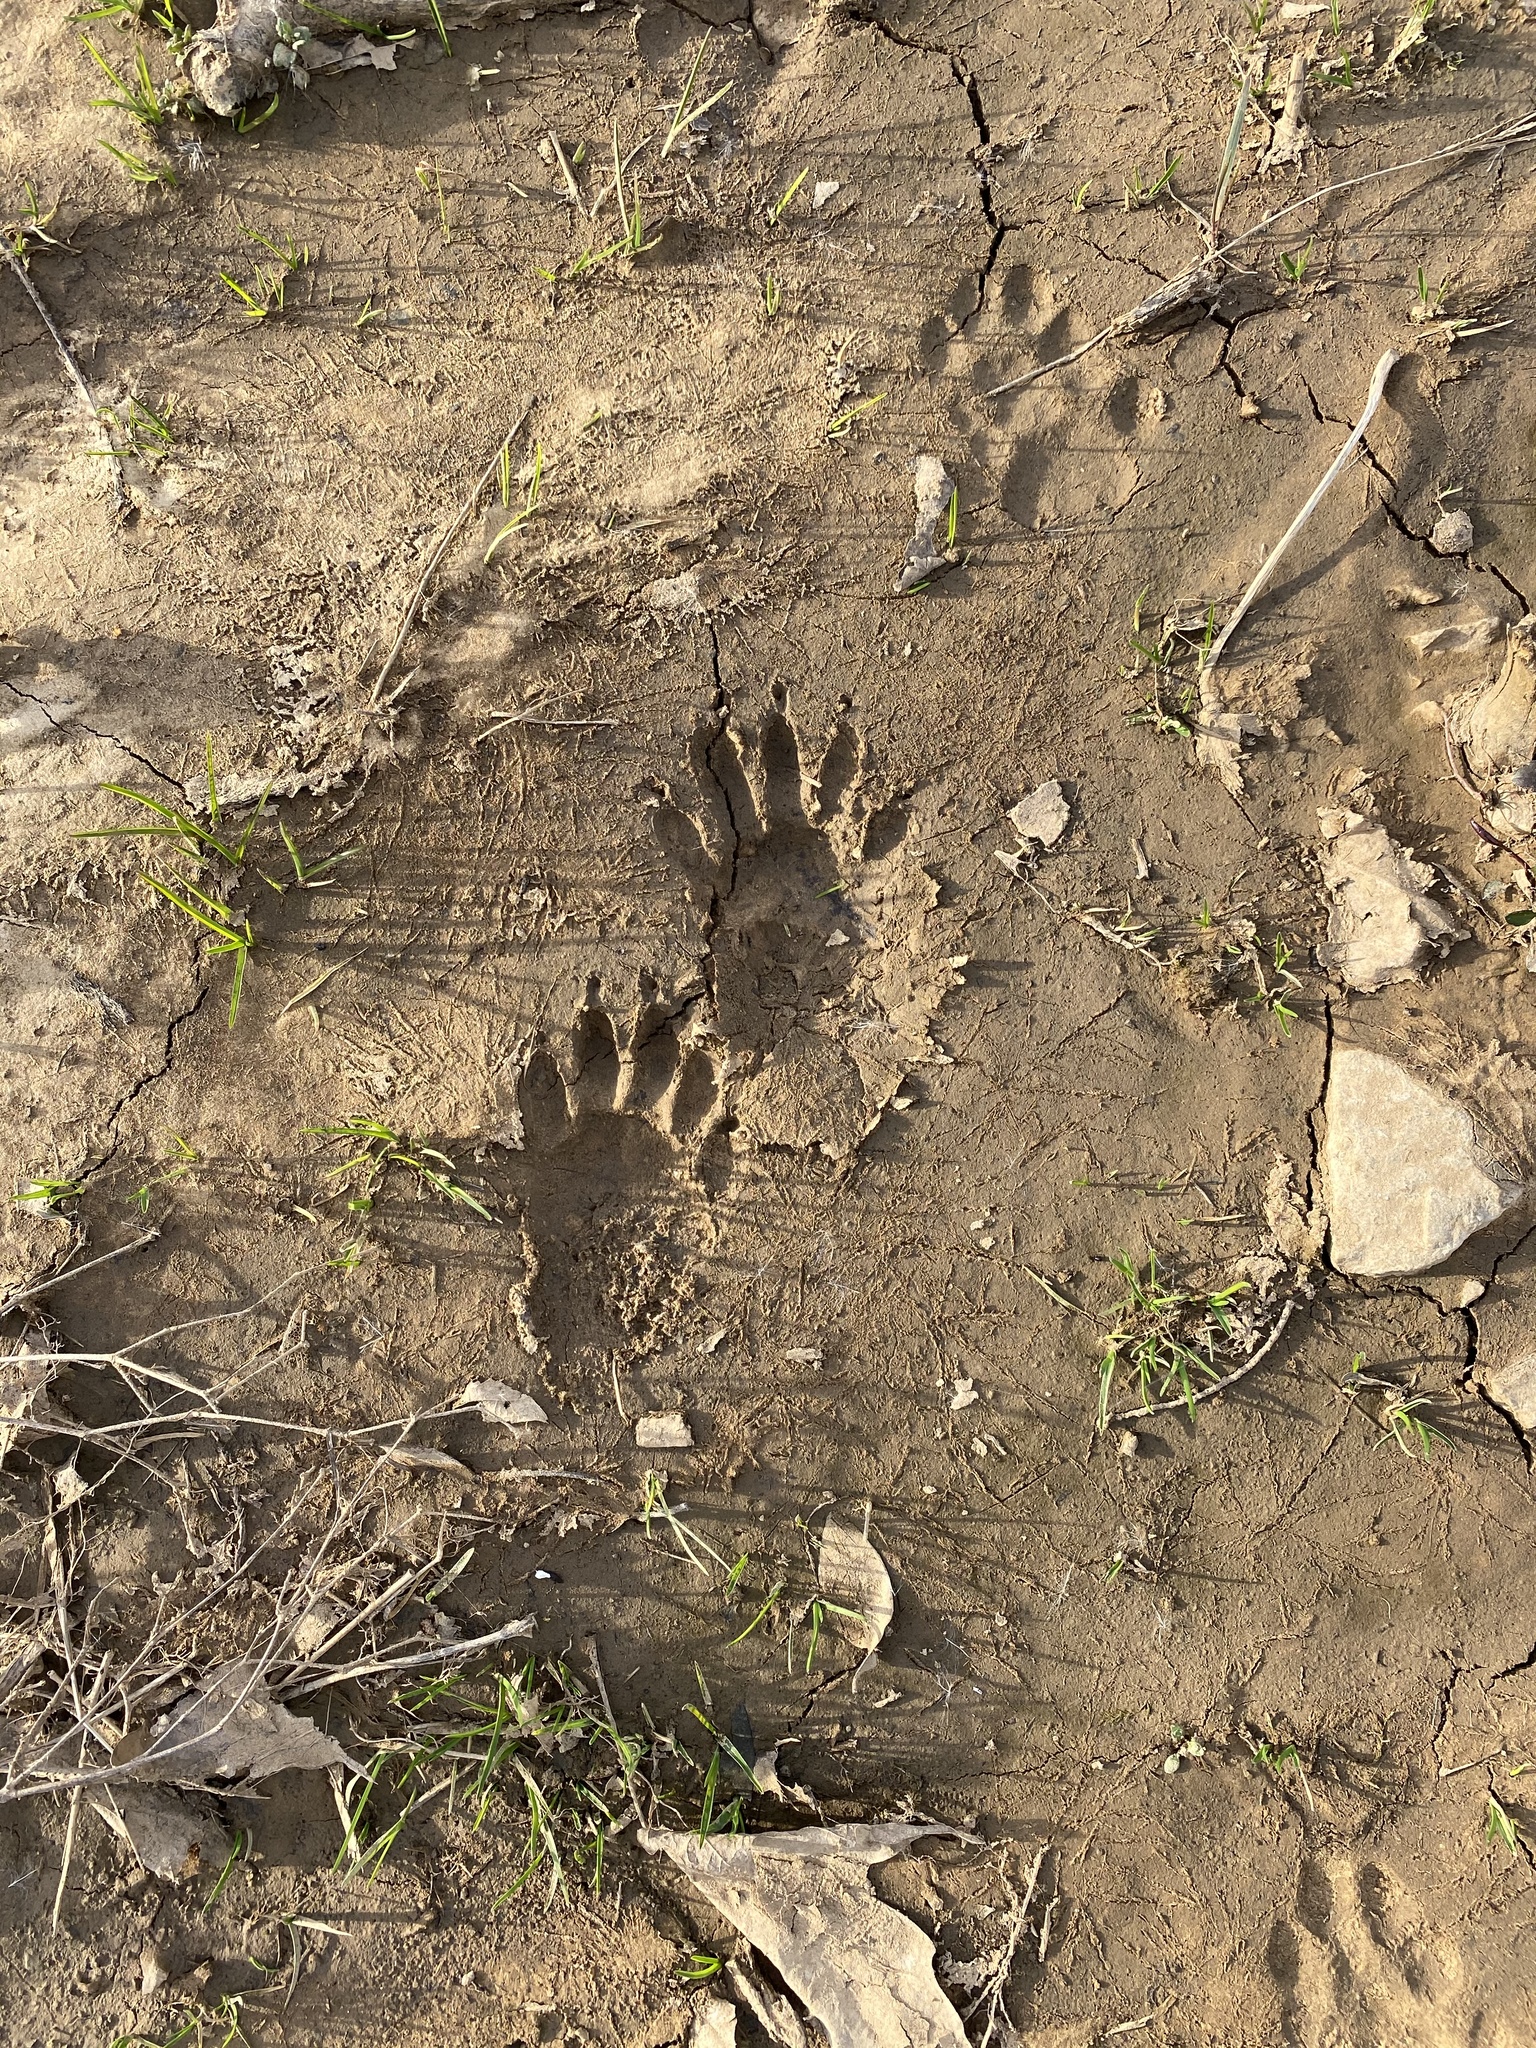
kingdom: Animalia
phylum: Chordata
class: Mammalia
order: Carnivora
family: Procyonidae
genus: Procyon
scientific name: Procyon lotor
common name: Raccoon
